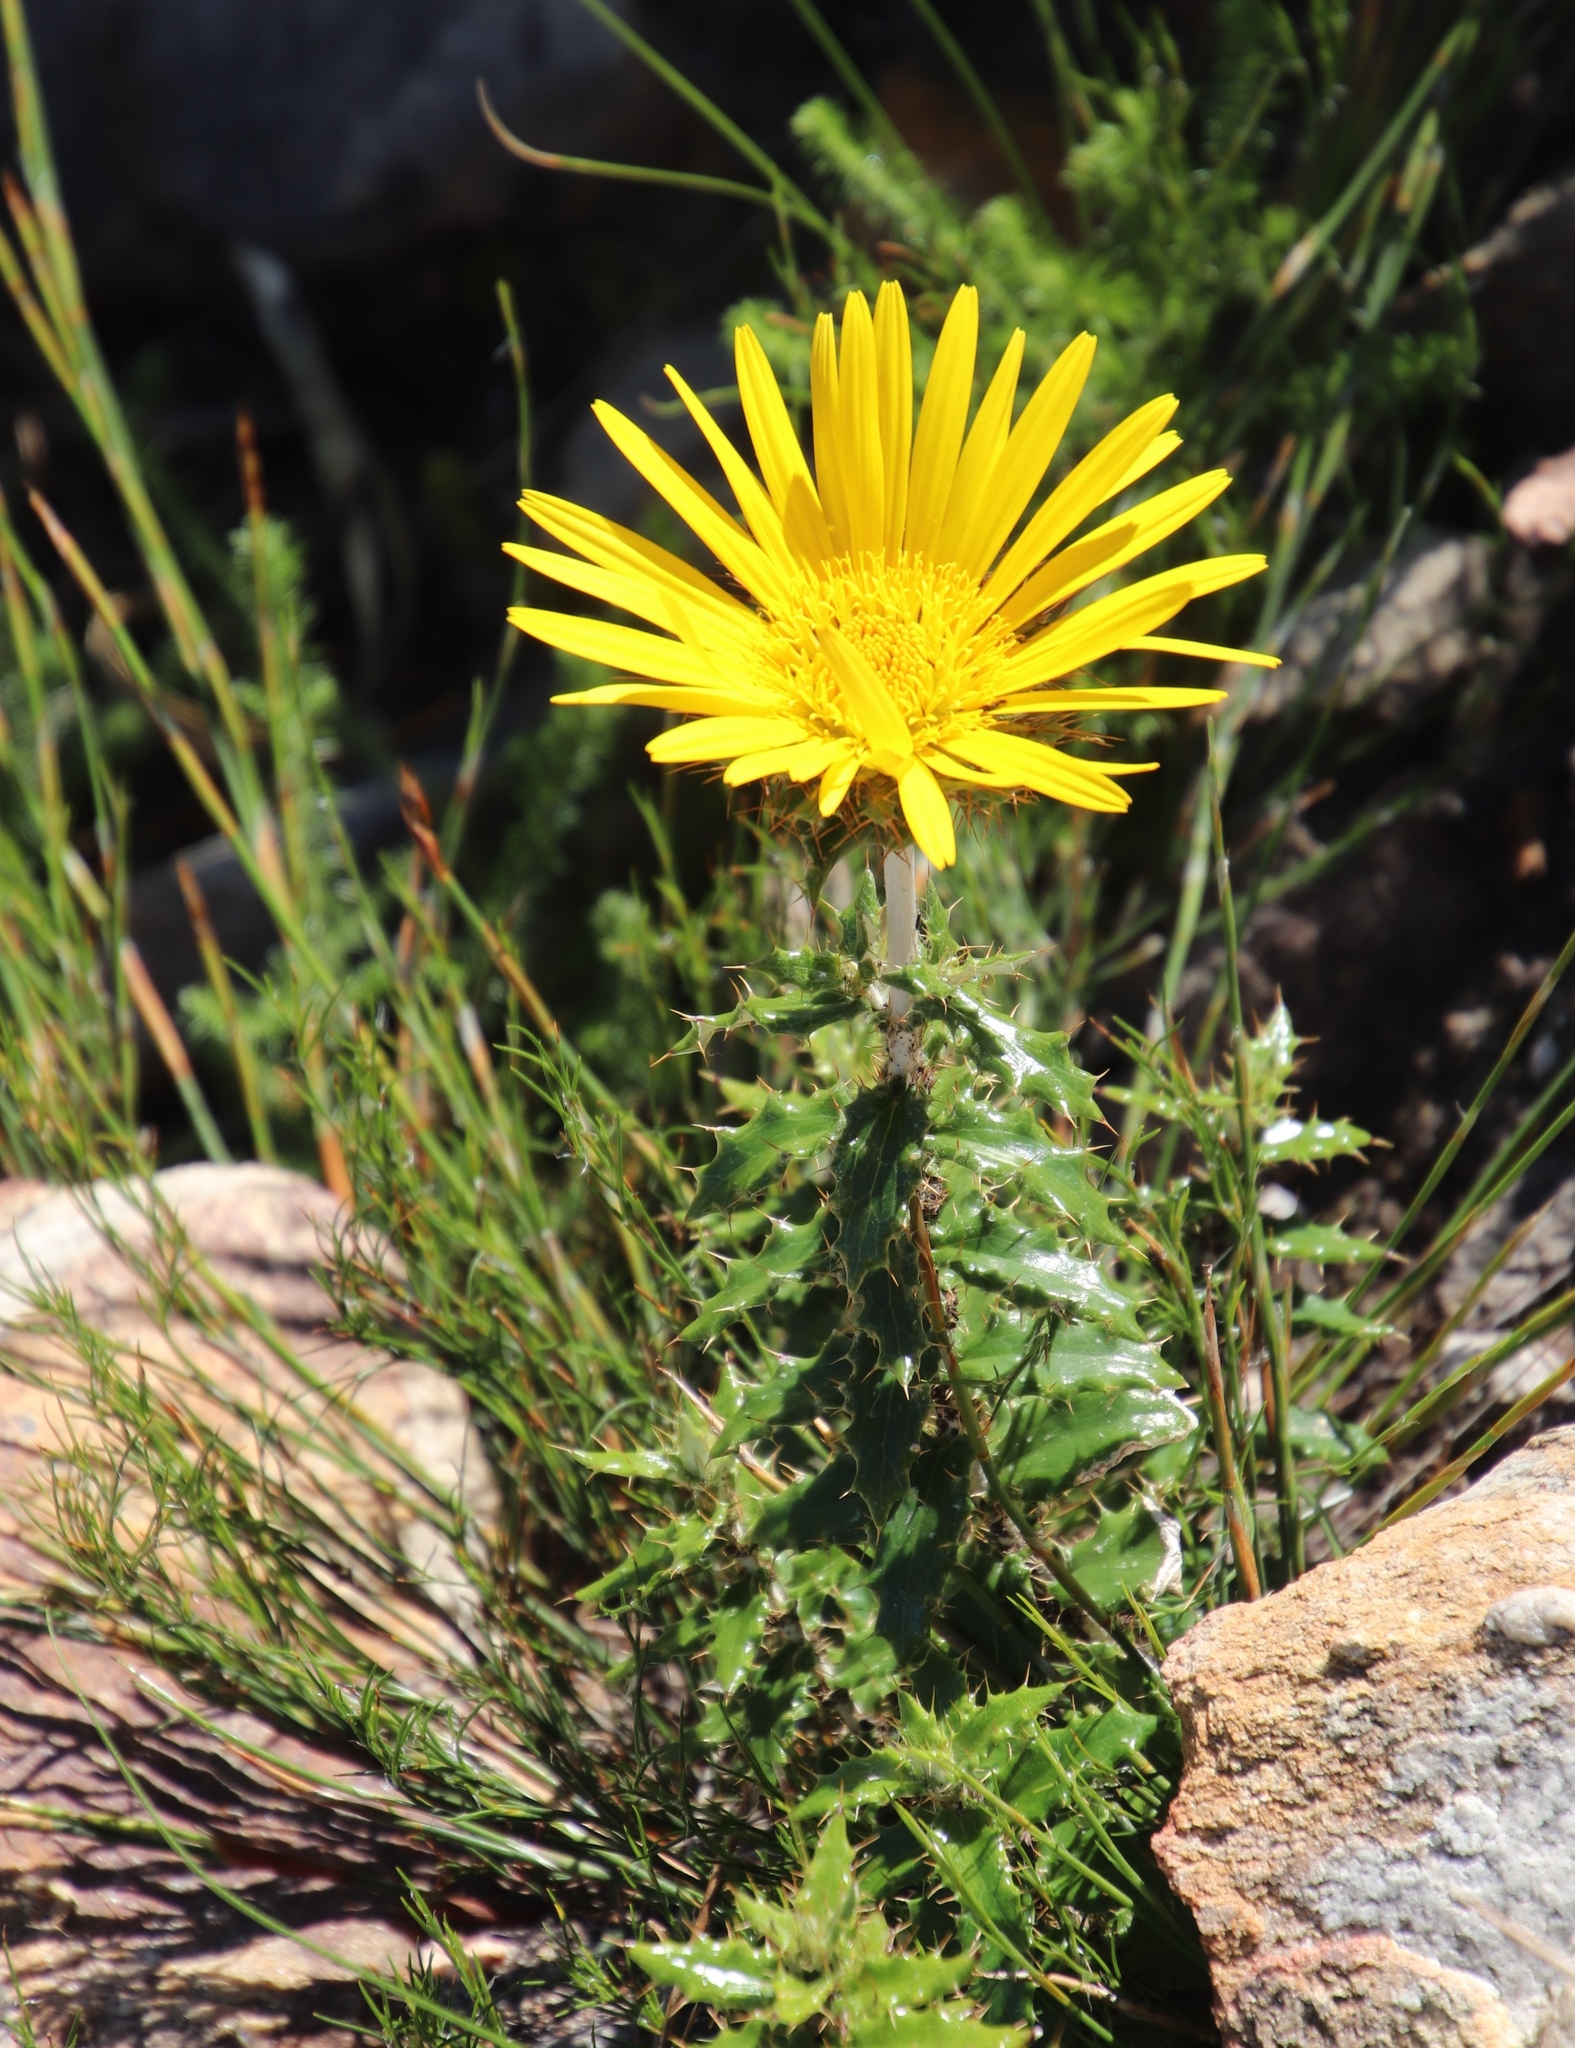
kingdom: Plantae
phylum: Tracheophyta
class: Magnoliopsida
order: Asterales
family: Asteraceae
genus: Berkheya
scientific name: Berkheya barbata
